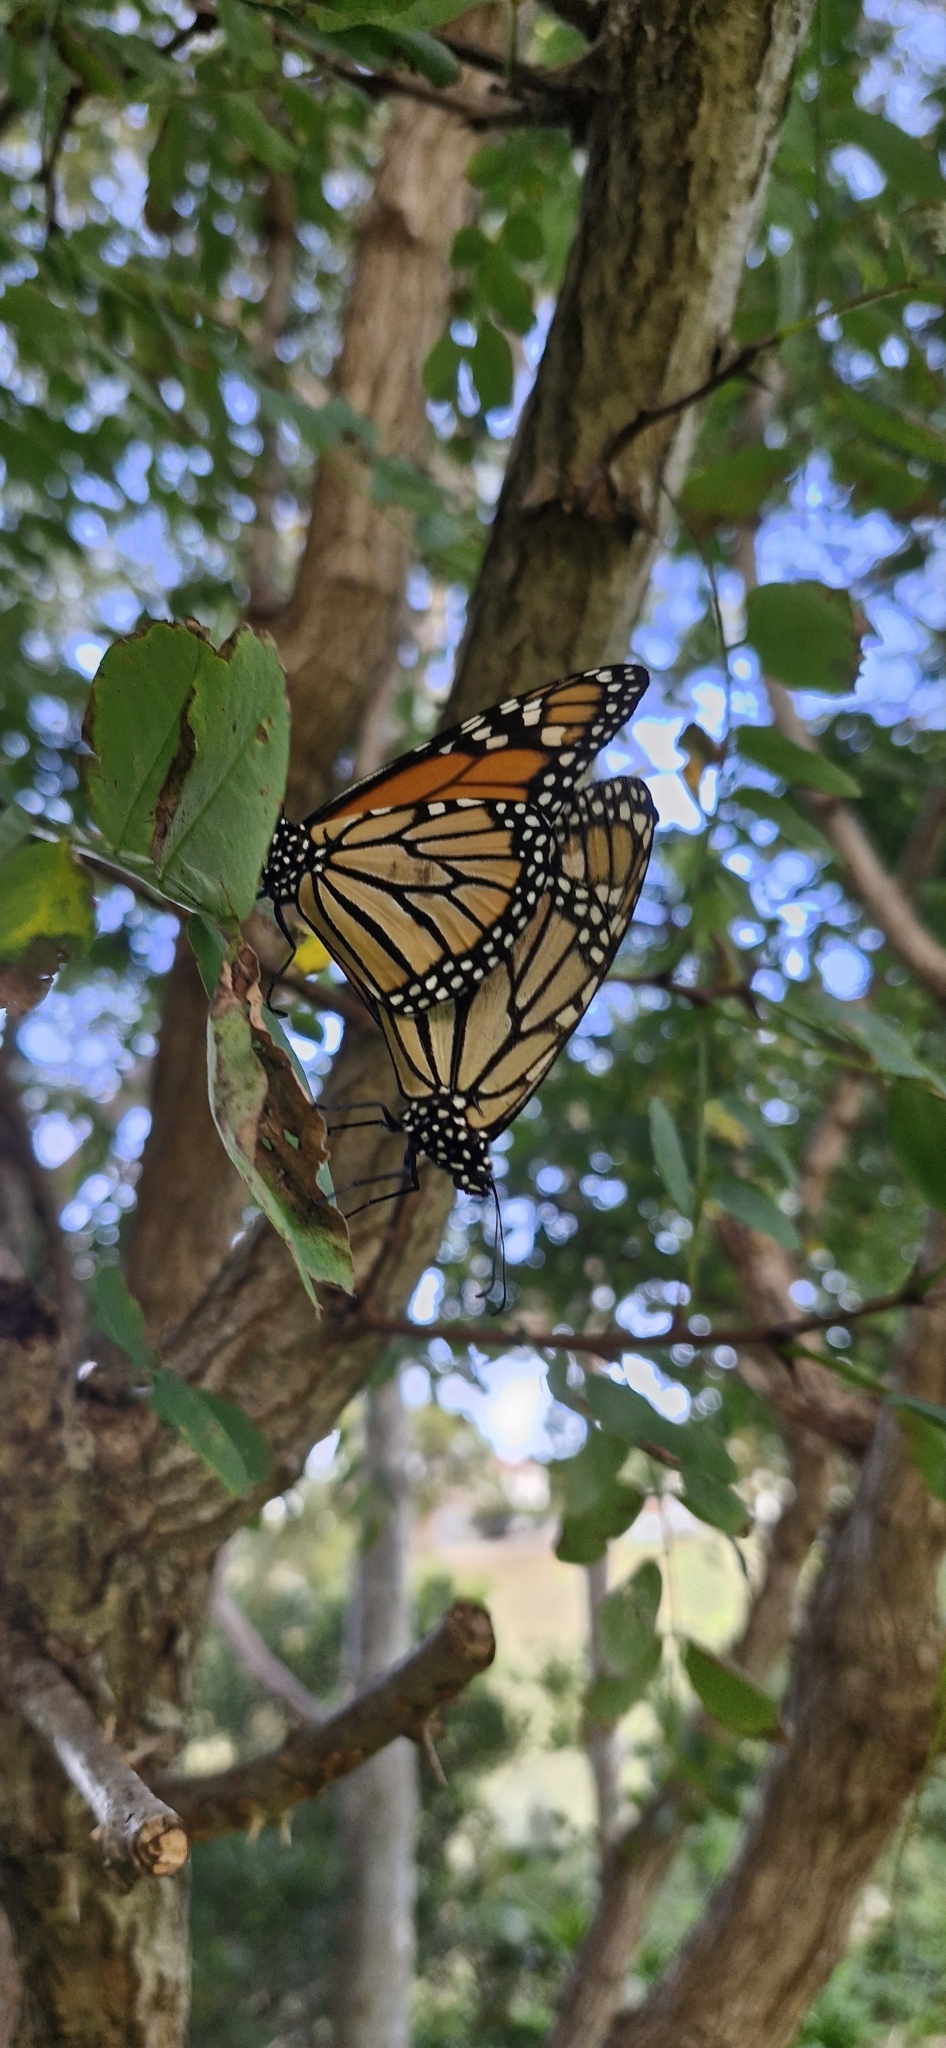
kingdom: Animalia
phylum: Arthropoda
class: Insecta
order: Lepidoptera
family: Nymphalidae
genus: Danaus
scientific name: Danaus plexippus
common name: Monarch
